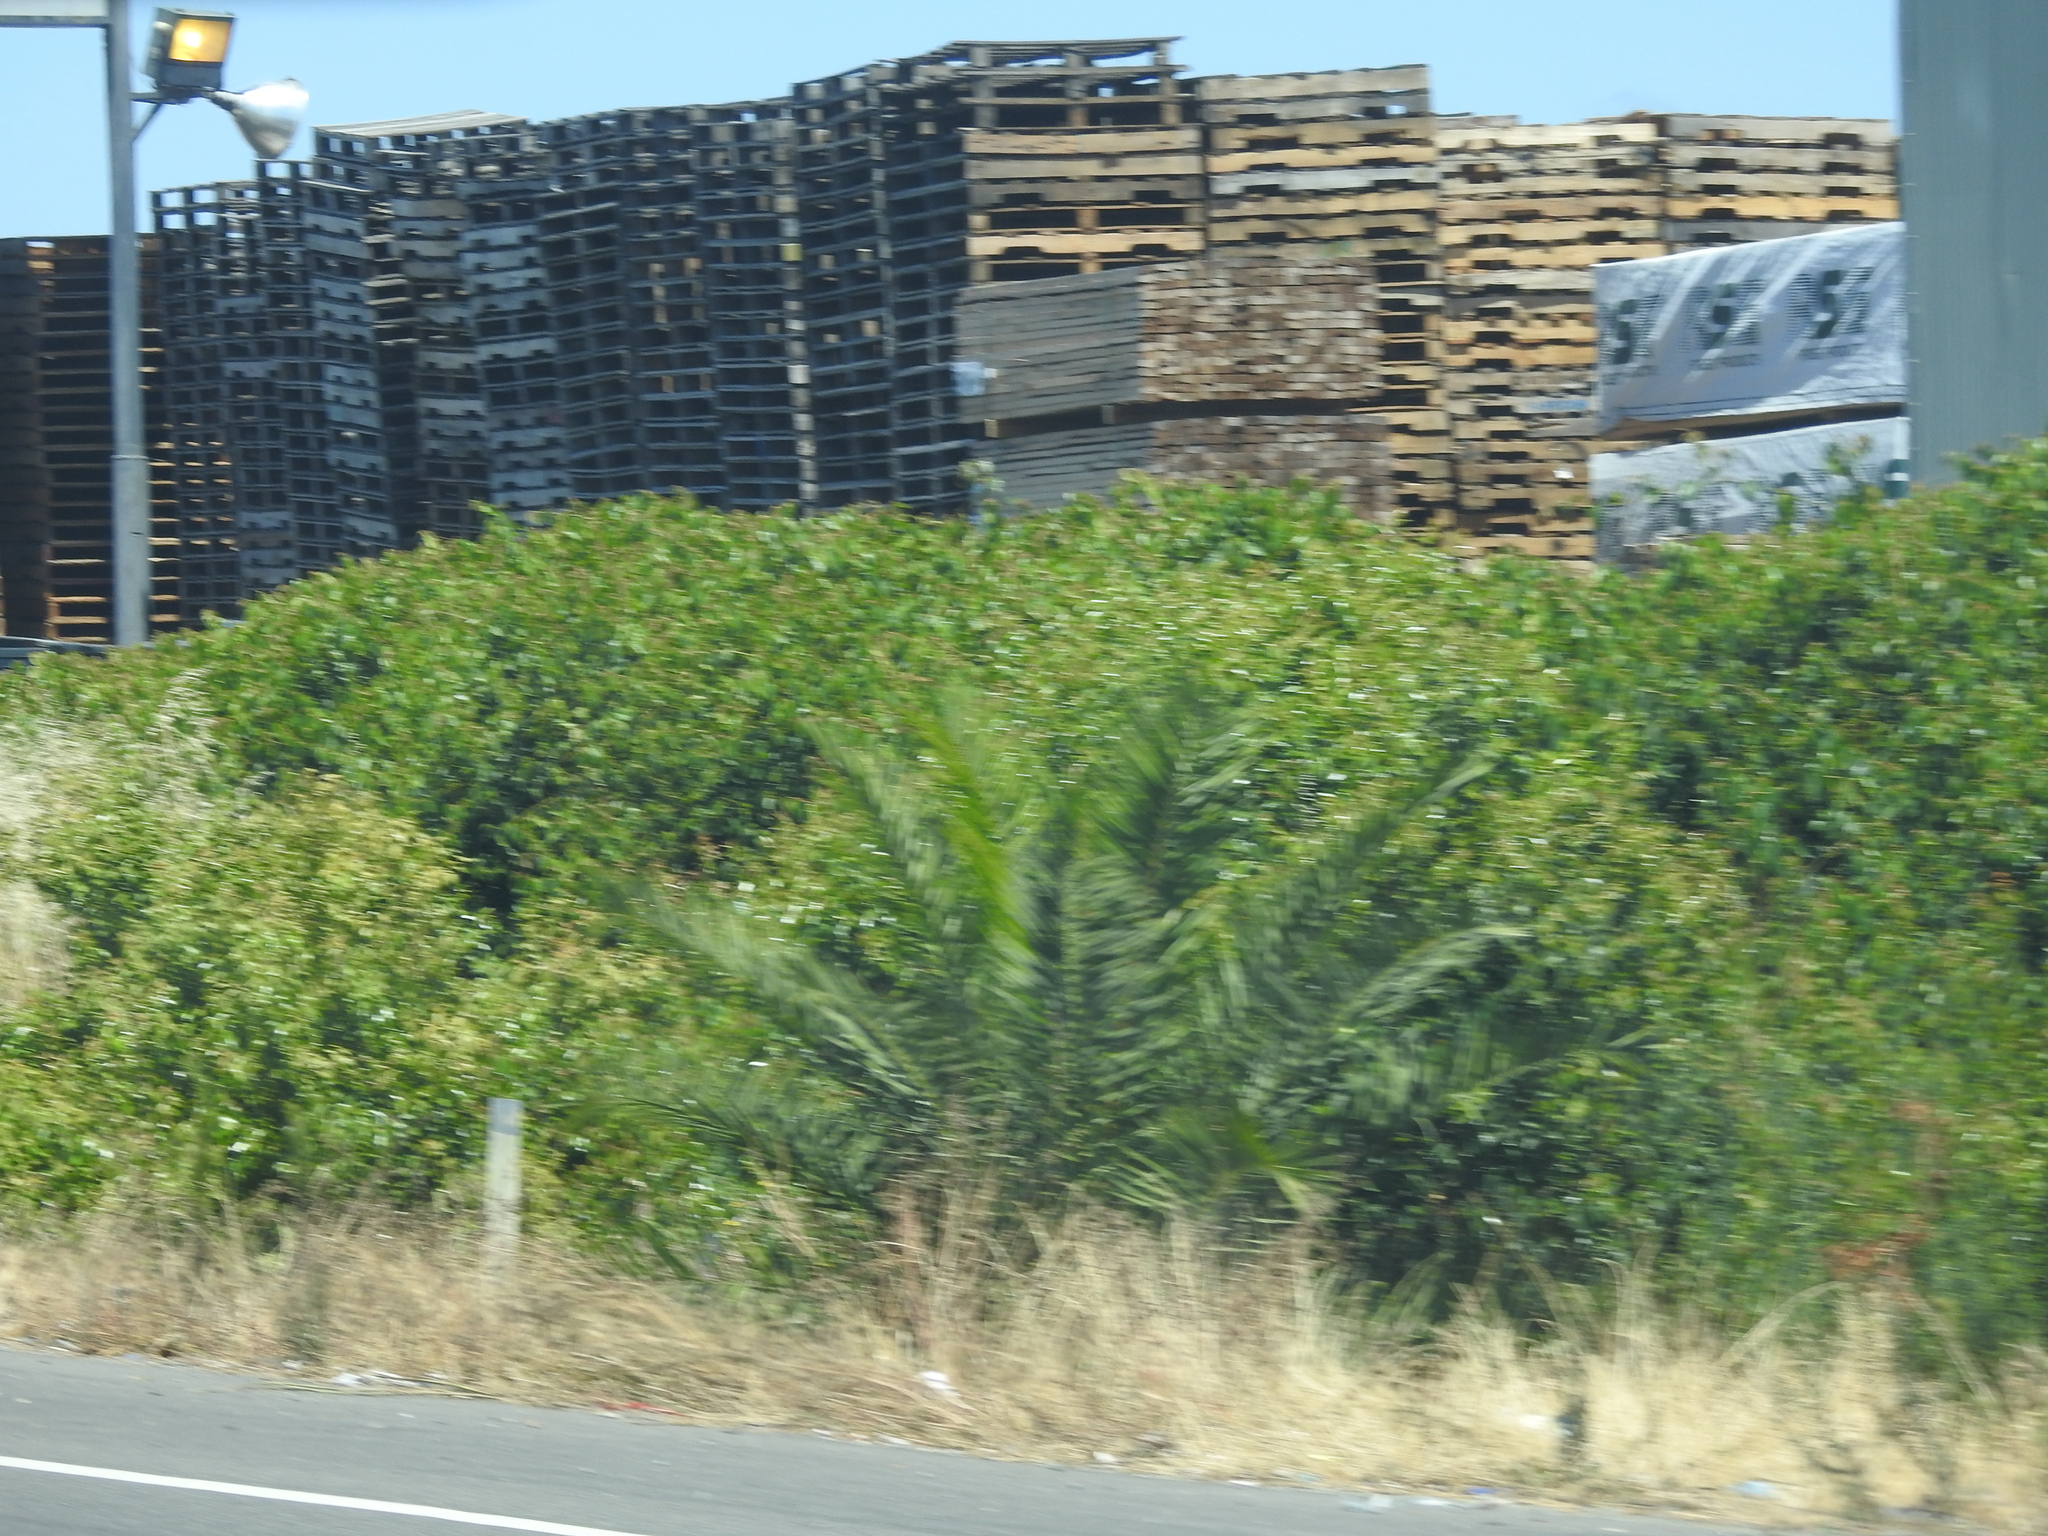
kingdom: Plantae
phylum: Tracheophyta
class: Liliopsida
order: Arecales
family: Arecaceae
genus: Phoenix
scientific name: Phoenix canariensis
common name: Canary island date palm
